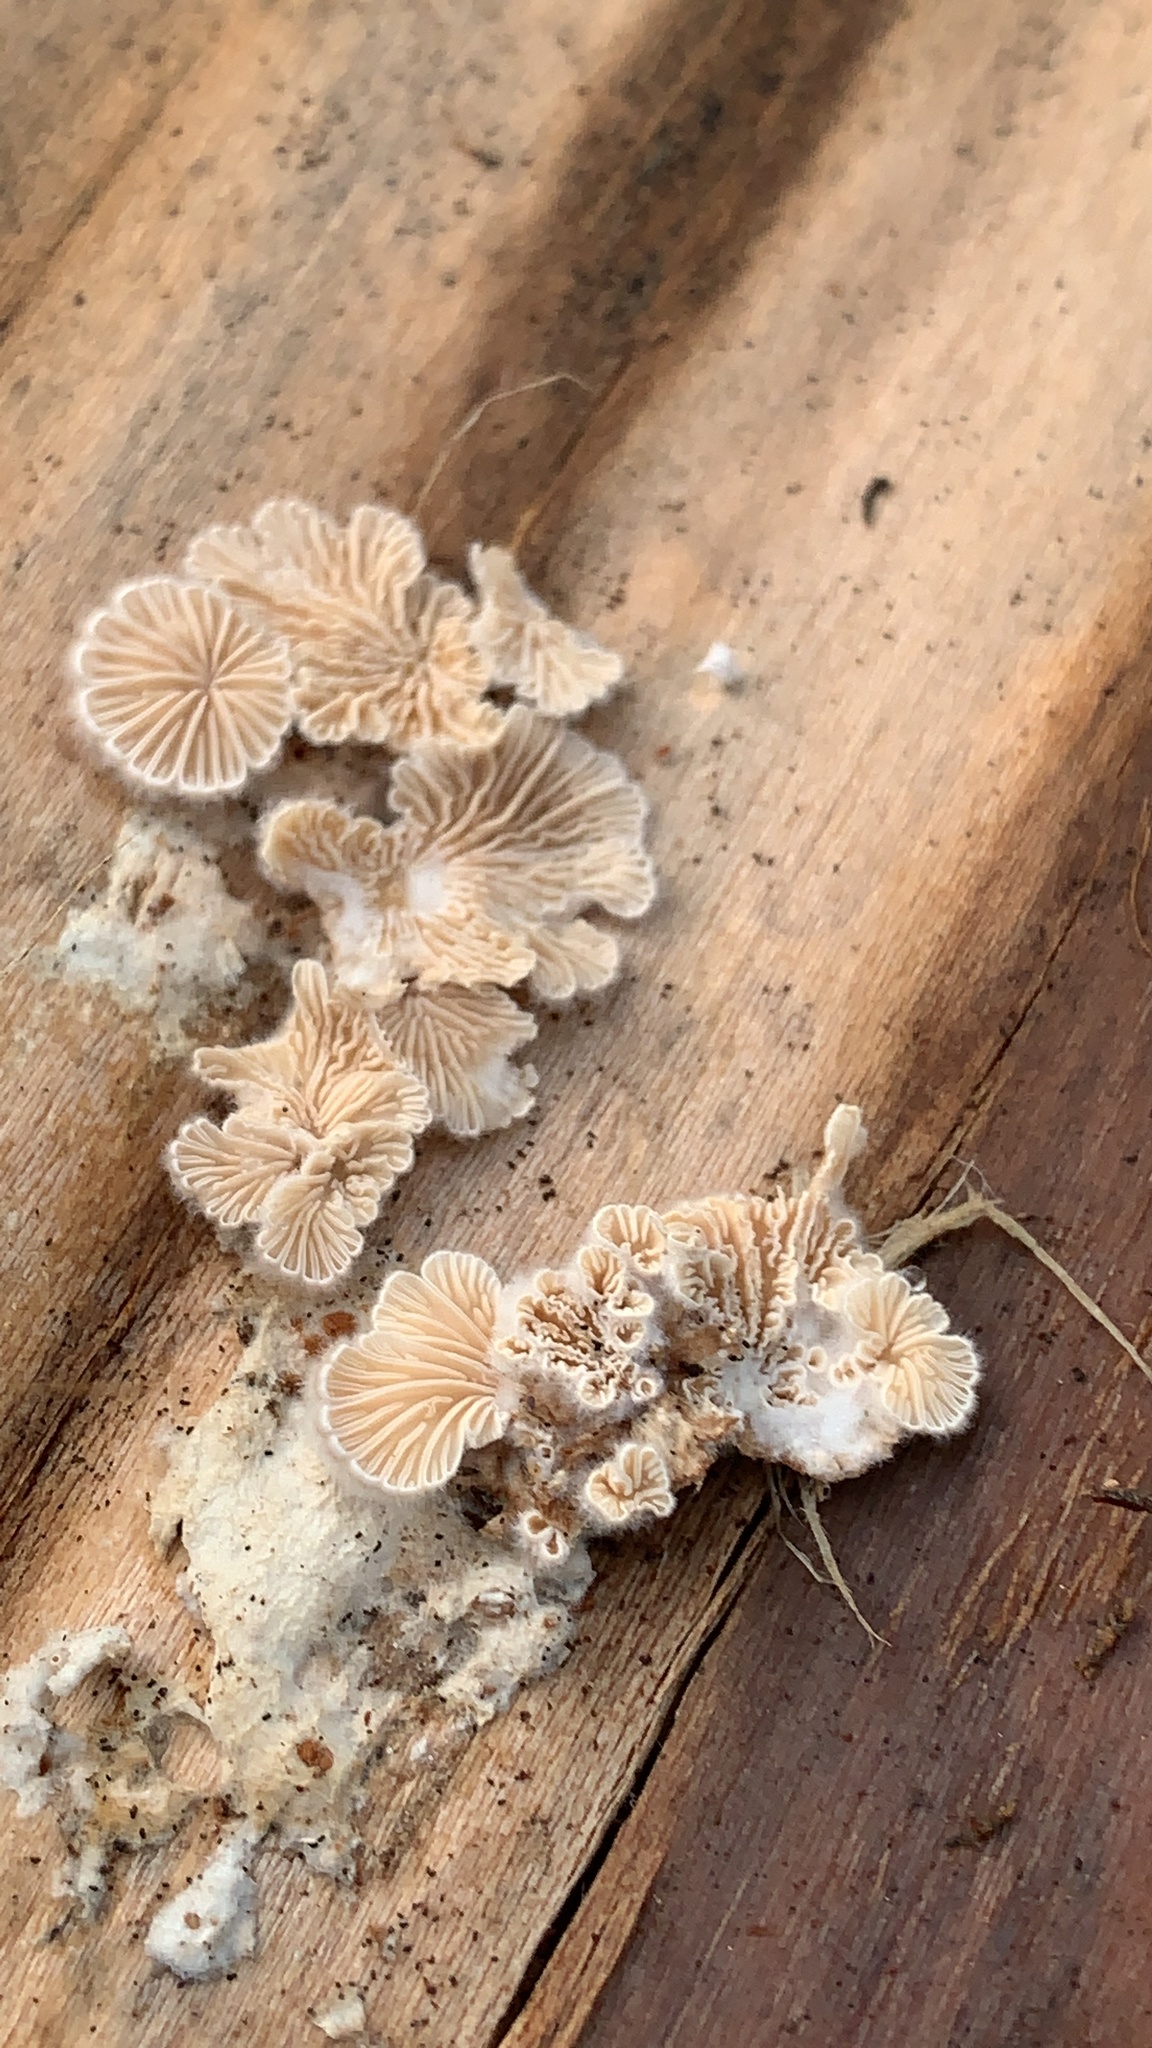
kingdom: Fungi
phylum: Basidiomycota
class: Agaricomycetes
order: Agaricales
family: Schizophyllaceae
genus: Schizophyllum
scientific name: Schizophyllum commune
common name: Common porecrust
